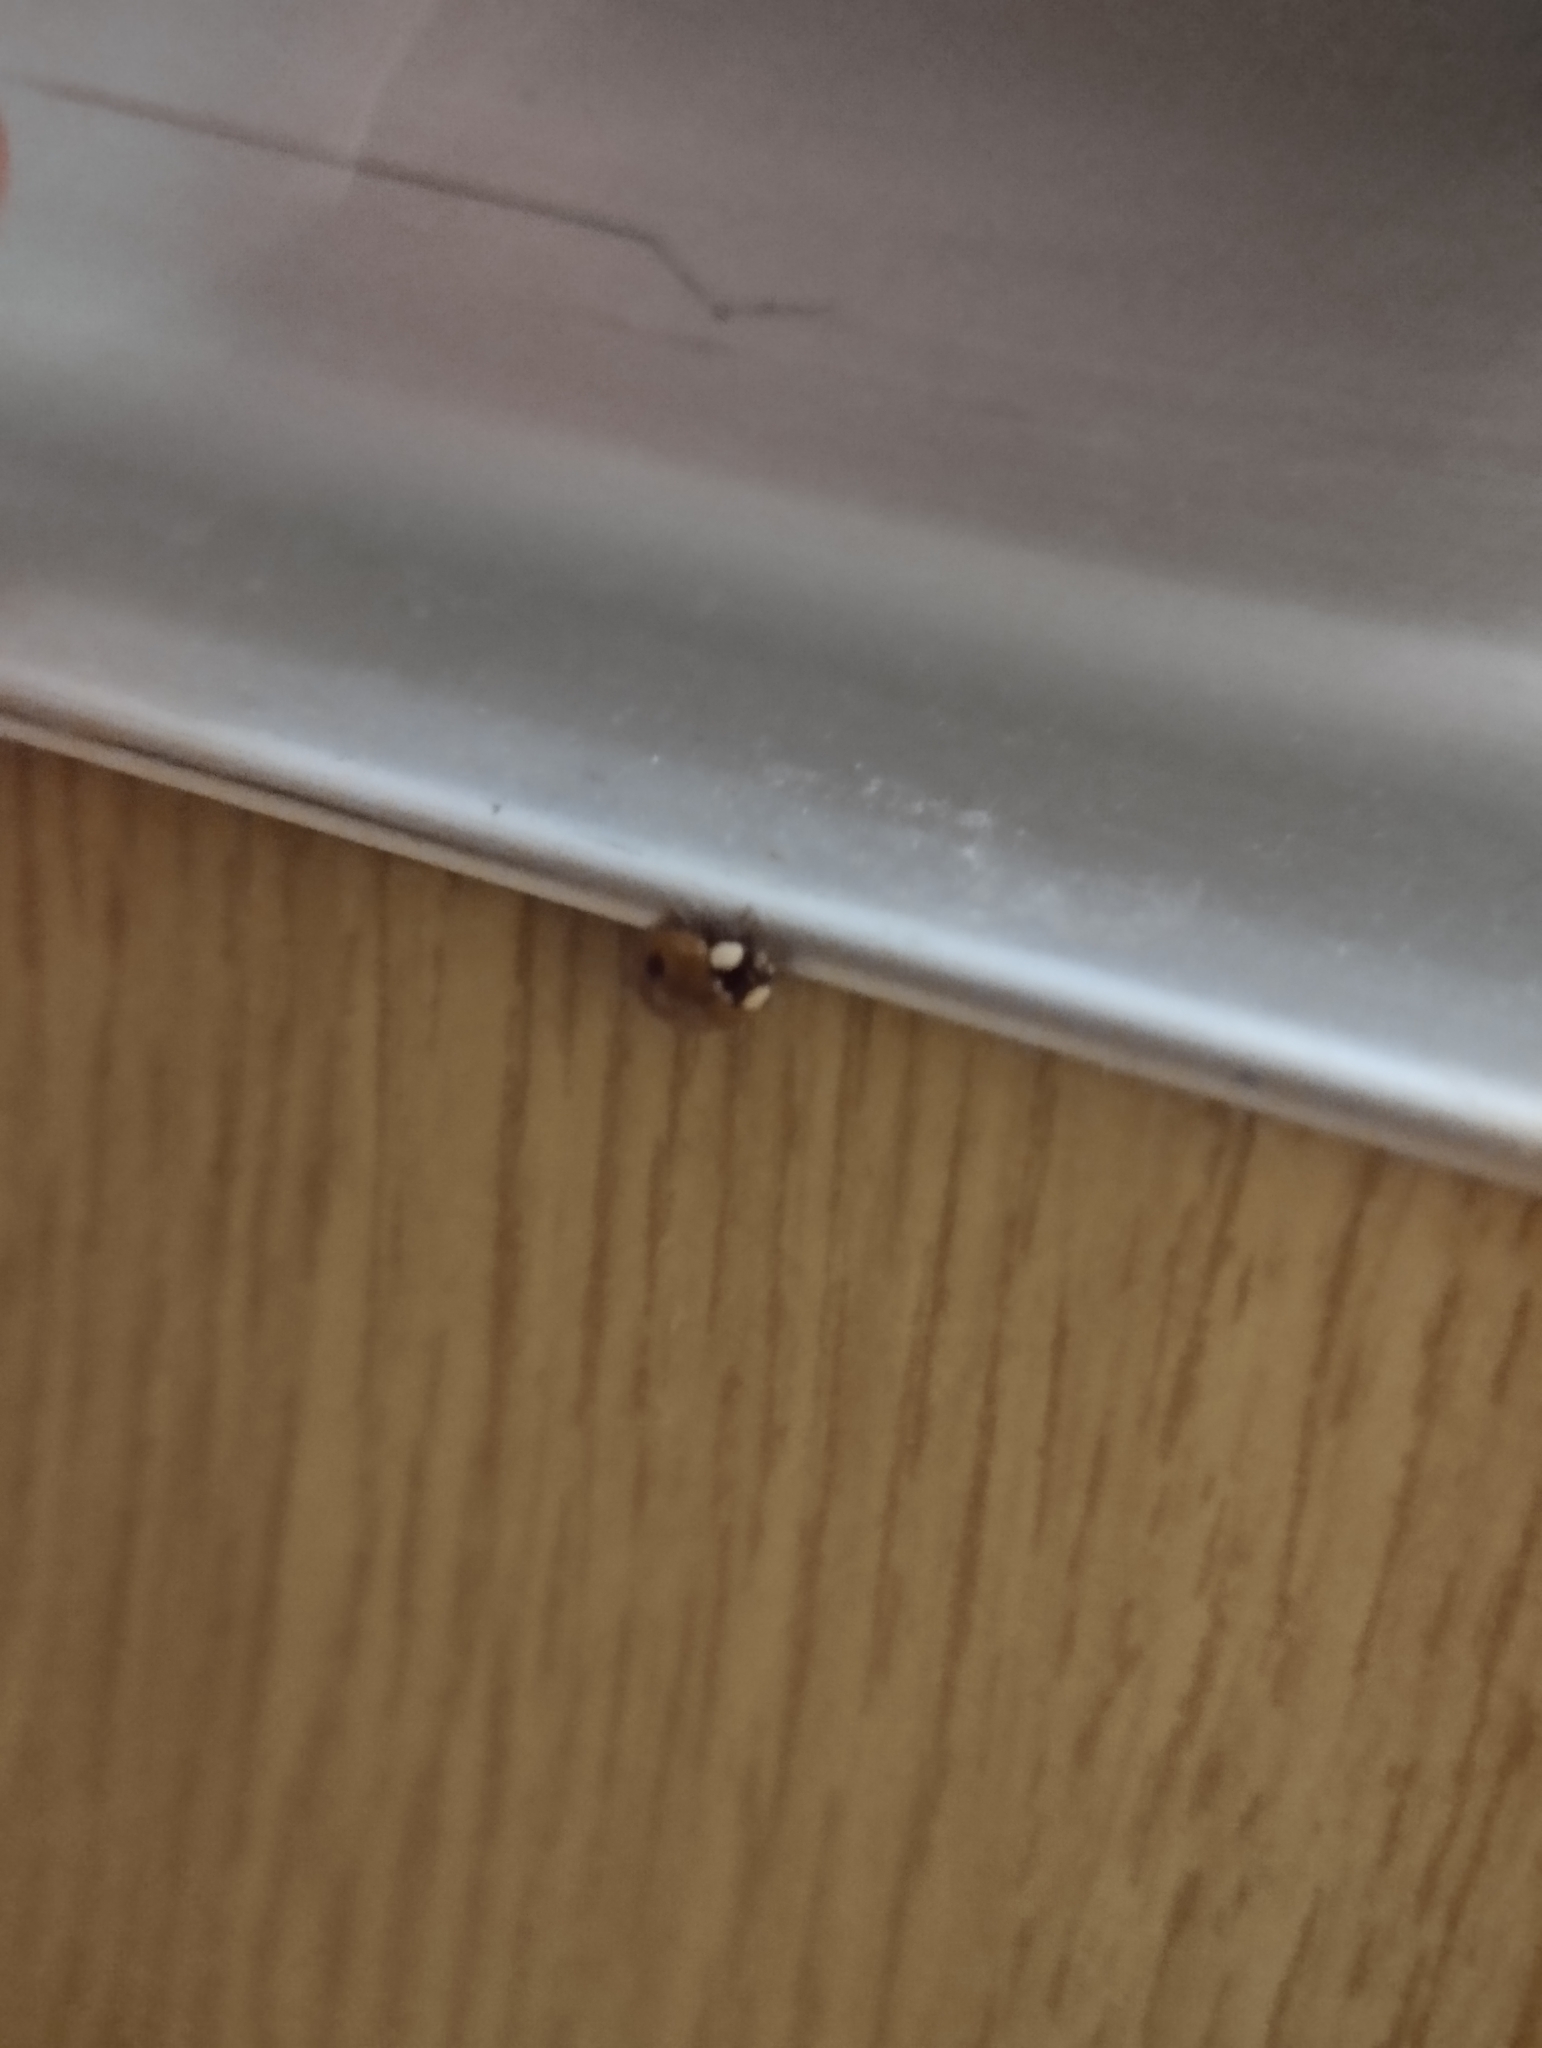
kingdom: Animalia
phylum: Arthropoda
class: Insecta
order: Coleoptera
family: Coccinellidae
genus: Adalia
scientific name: Adalia bipunctata
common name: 2-spot ladybird
